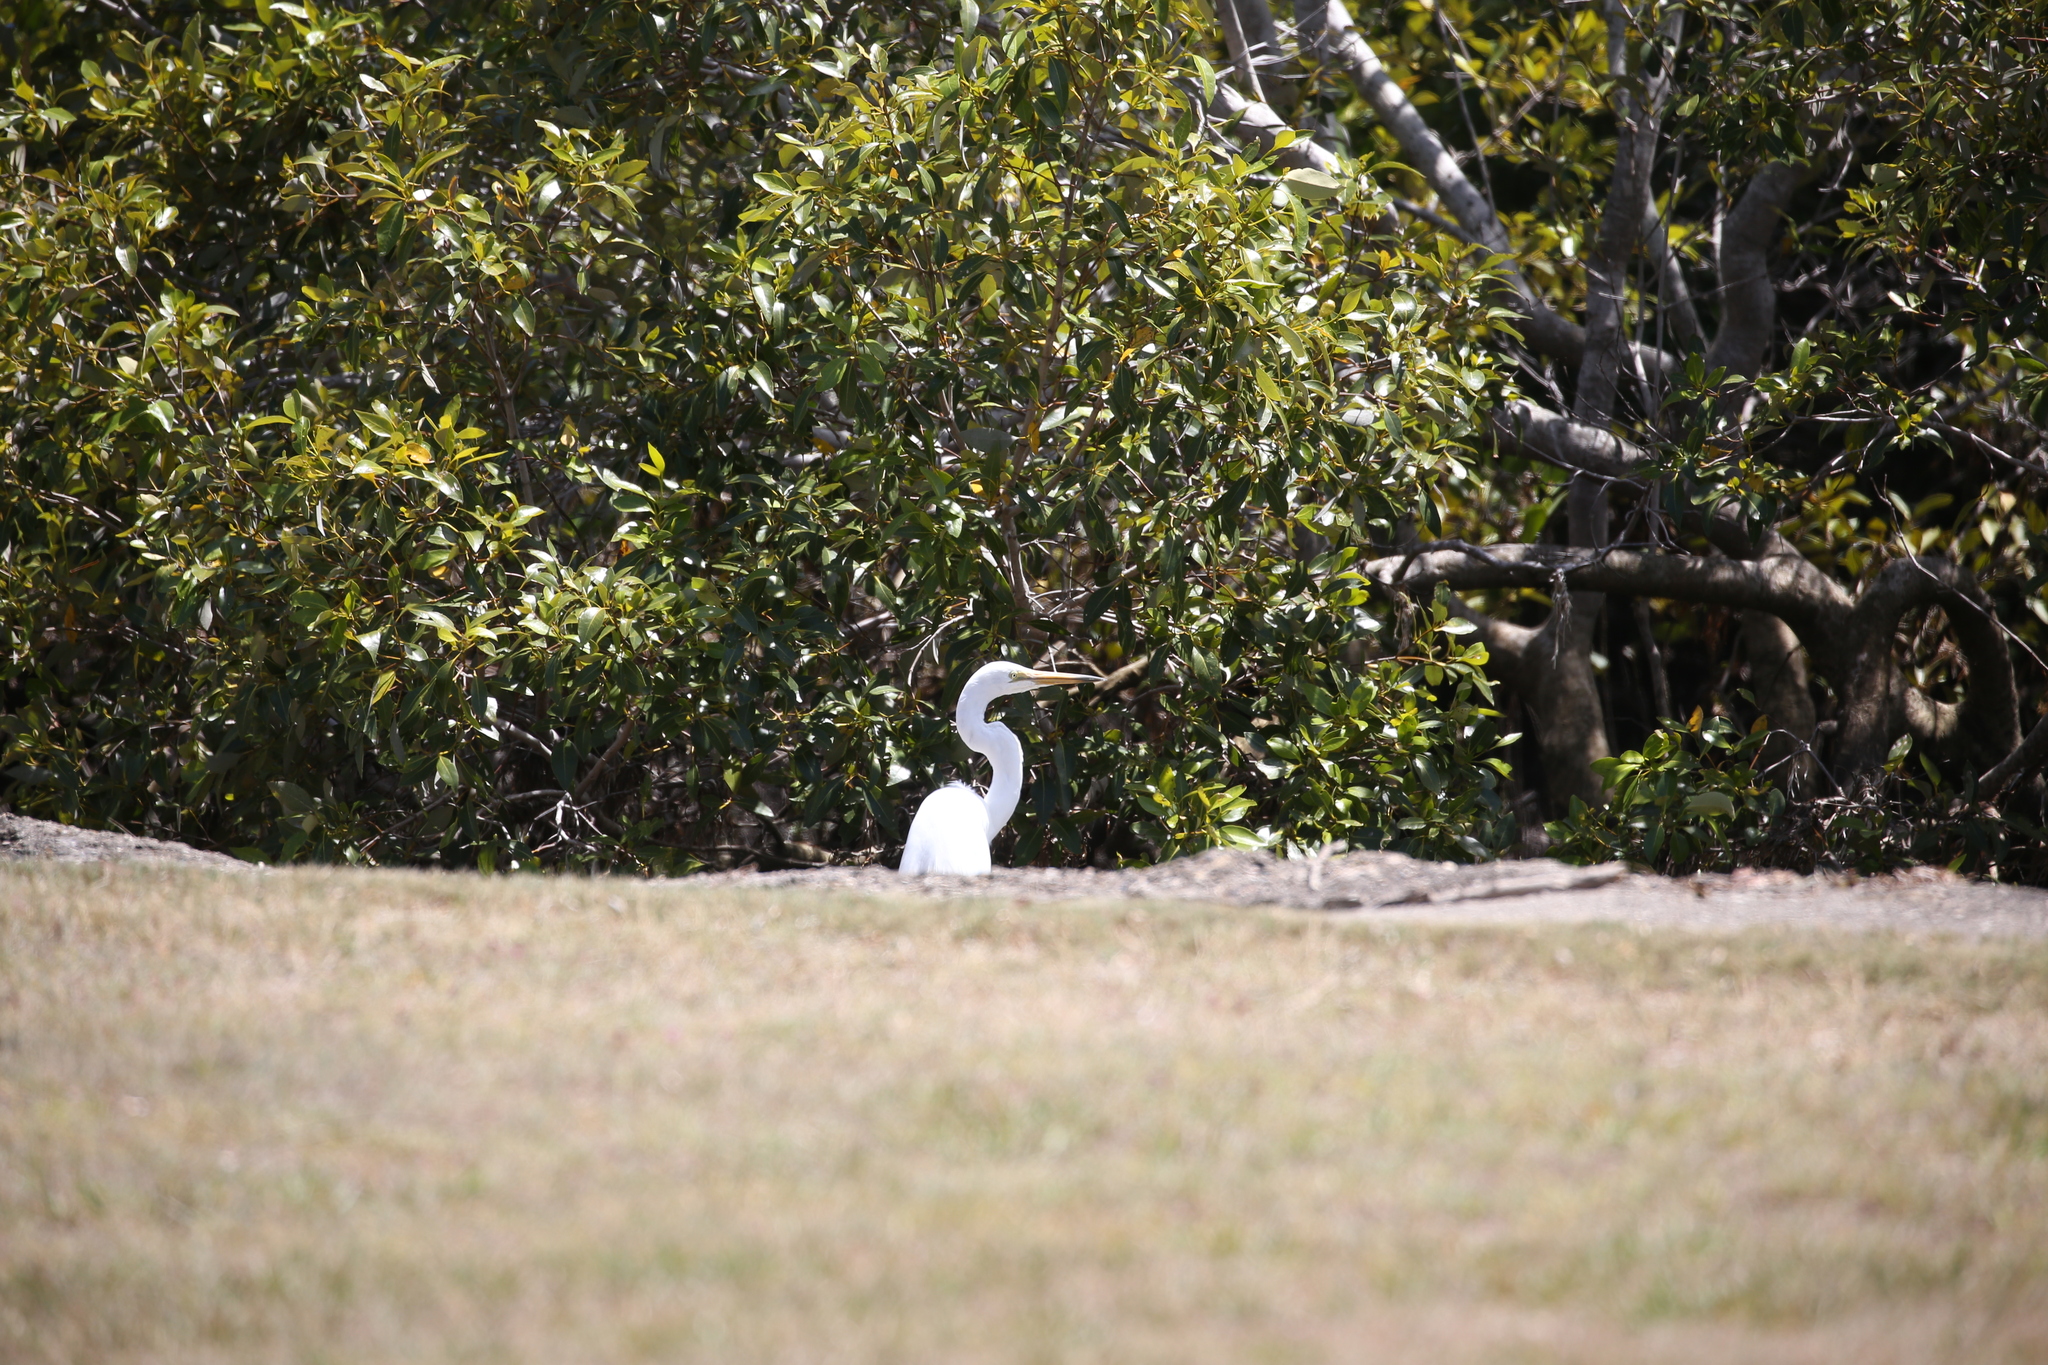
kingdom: Animalia
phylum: Chordata
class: Aves
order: Pelecaniformes
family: Ardeidae
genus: Ardea
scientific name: Ardea alba
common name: Great egret
